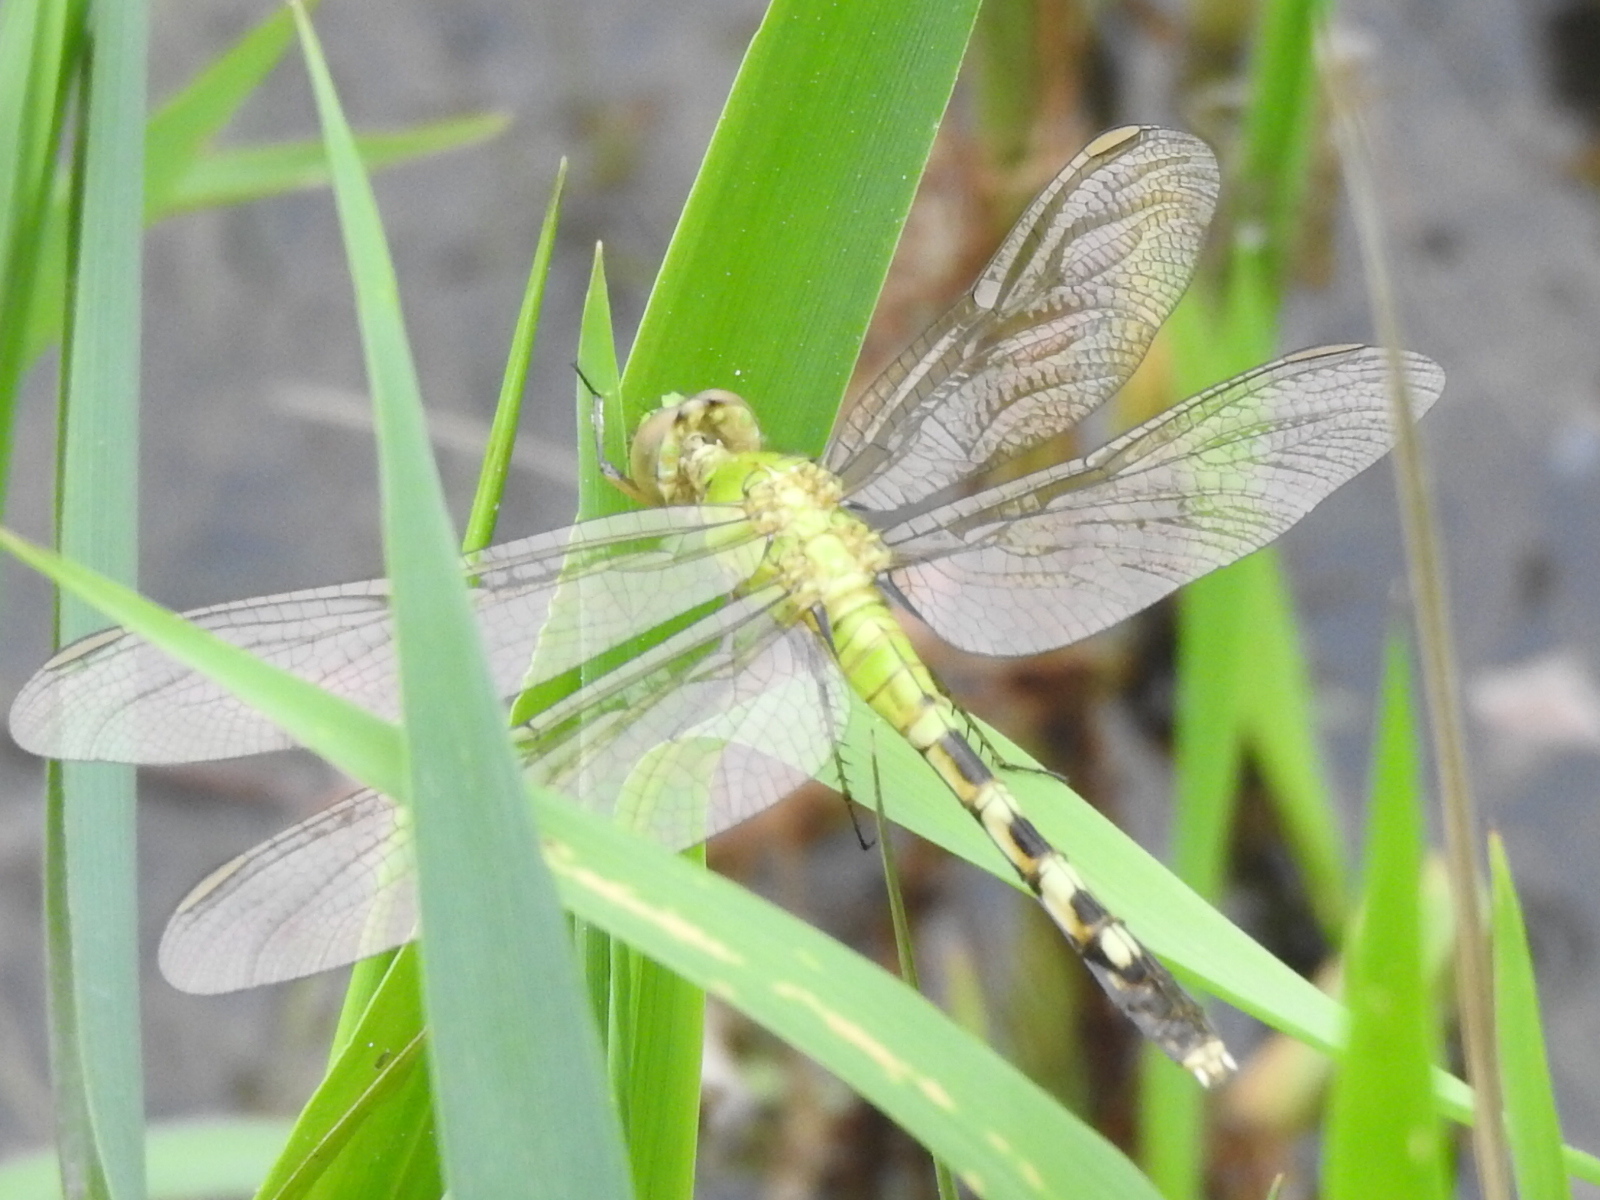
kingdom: Animalia
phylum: Arthropoda
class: Insecta
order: Odonata
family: Libellulidae
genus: Erythemis
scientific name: Erythemis simplicicollis
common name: Eastern pondhawk
